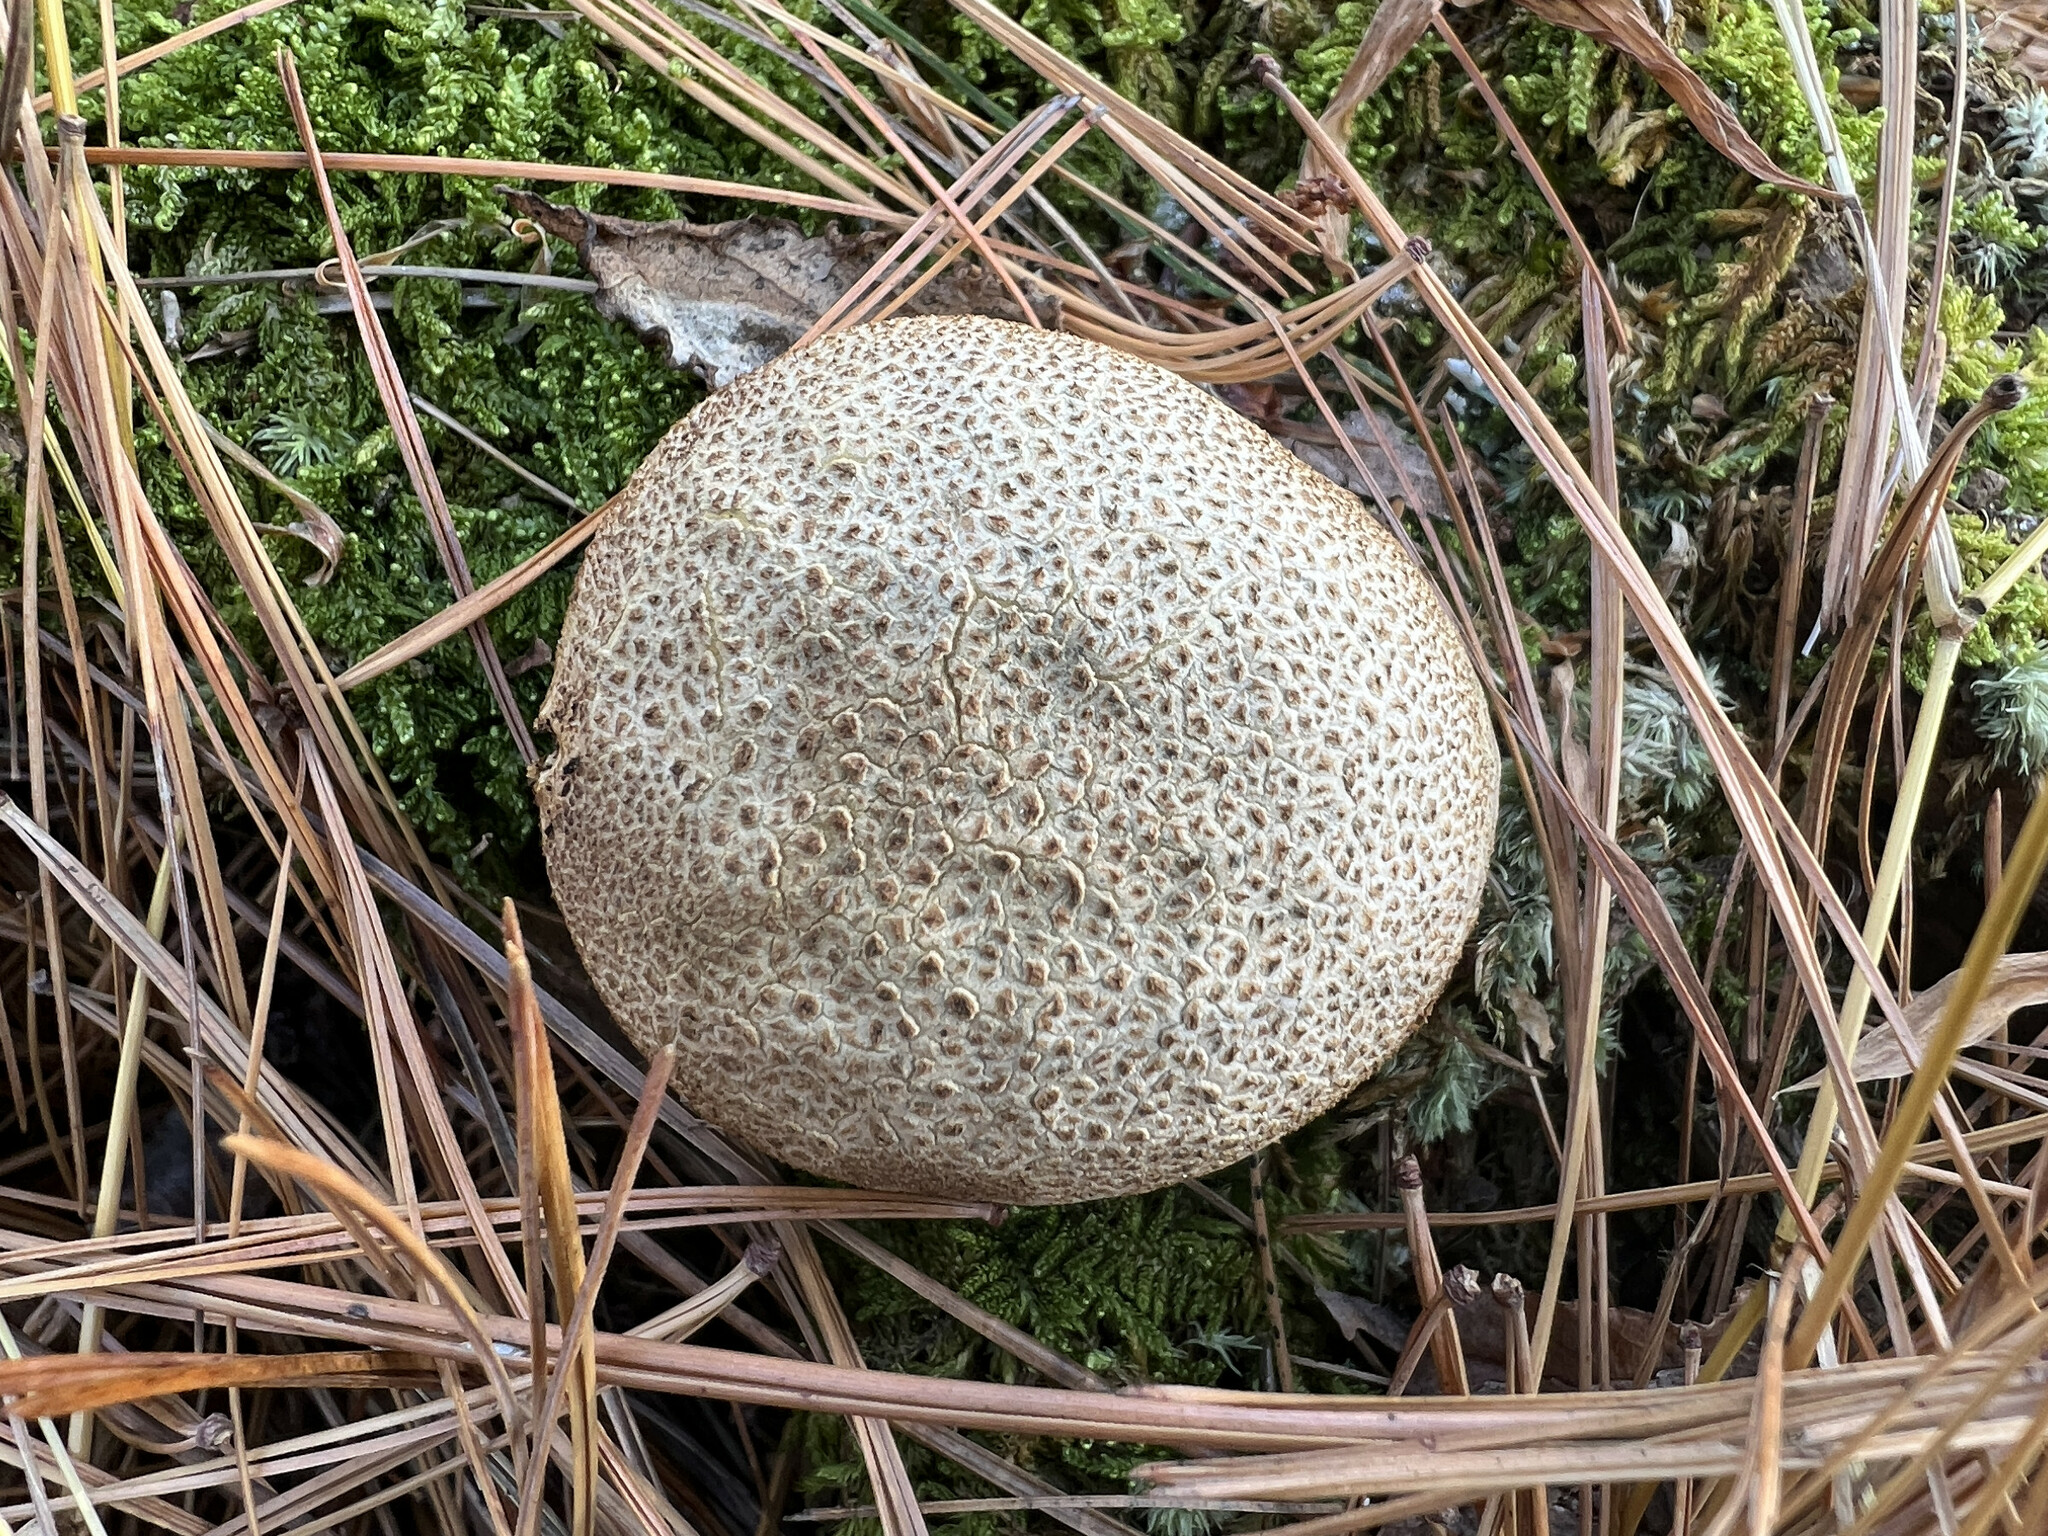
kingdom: Fungi
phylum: Basidiomycota
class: Agaricomycetes
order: Boletales
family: Sclerodermataceae
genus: Scleroderma
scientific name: Scleroderma citrinum
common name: Common earthball
